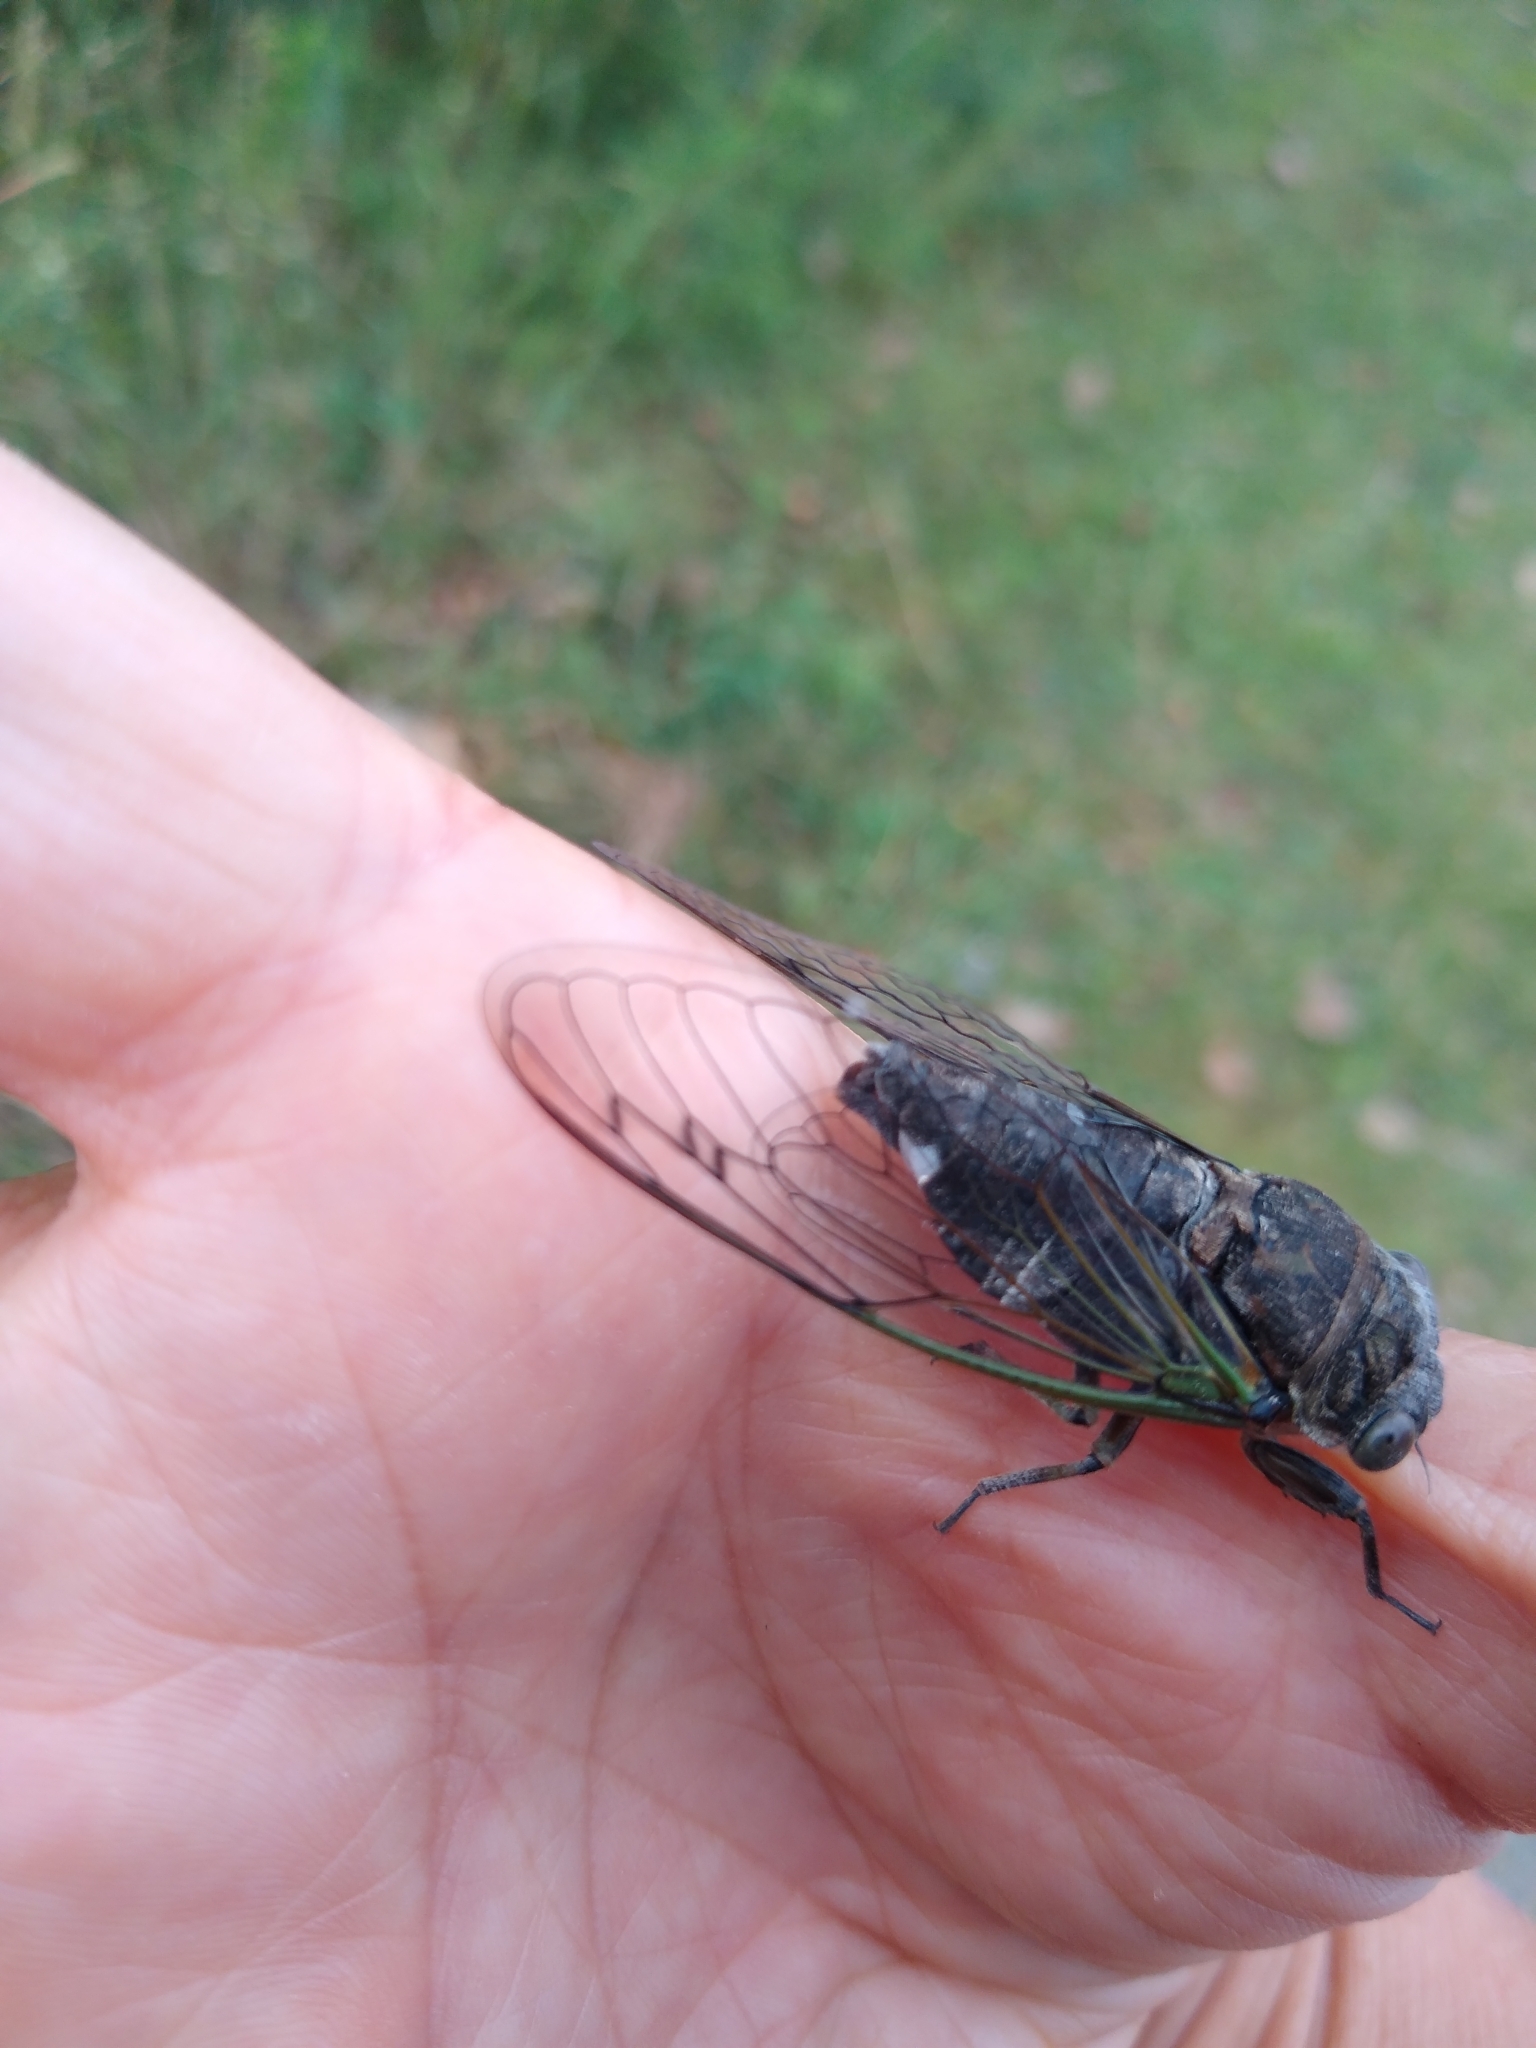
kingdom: Animalia
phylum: Arthropoda
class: Insecta
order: Hemiptera
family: Cicadidae
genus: Neotibicen
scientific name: Neotibicen canicularis
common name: God-day cicada
